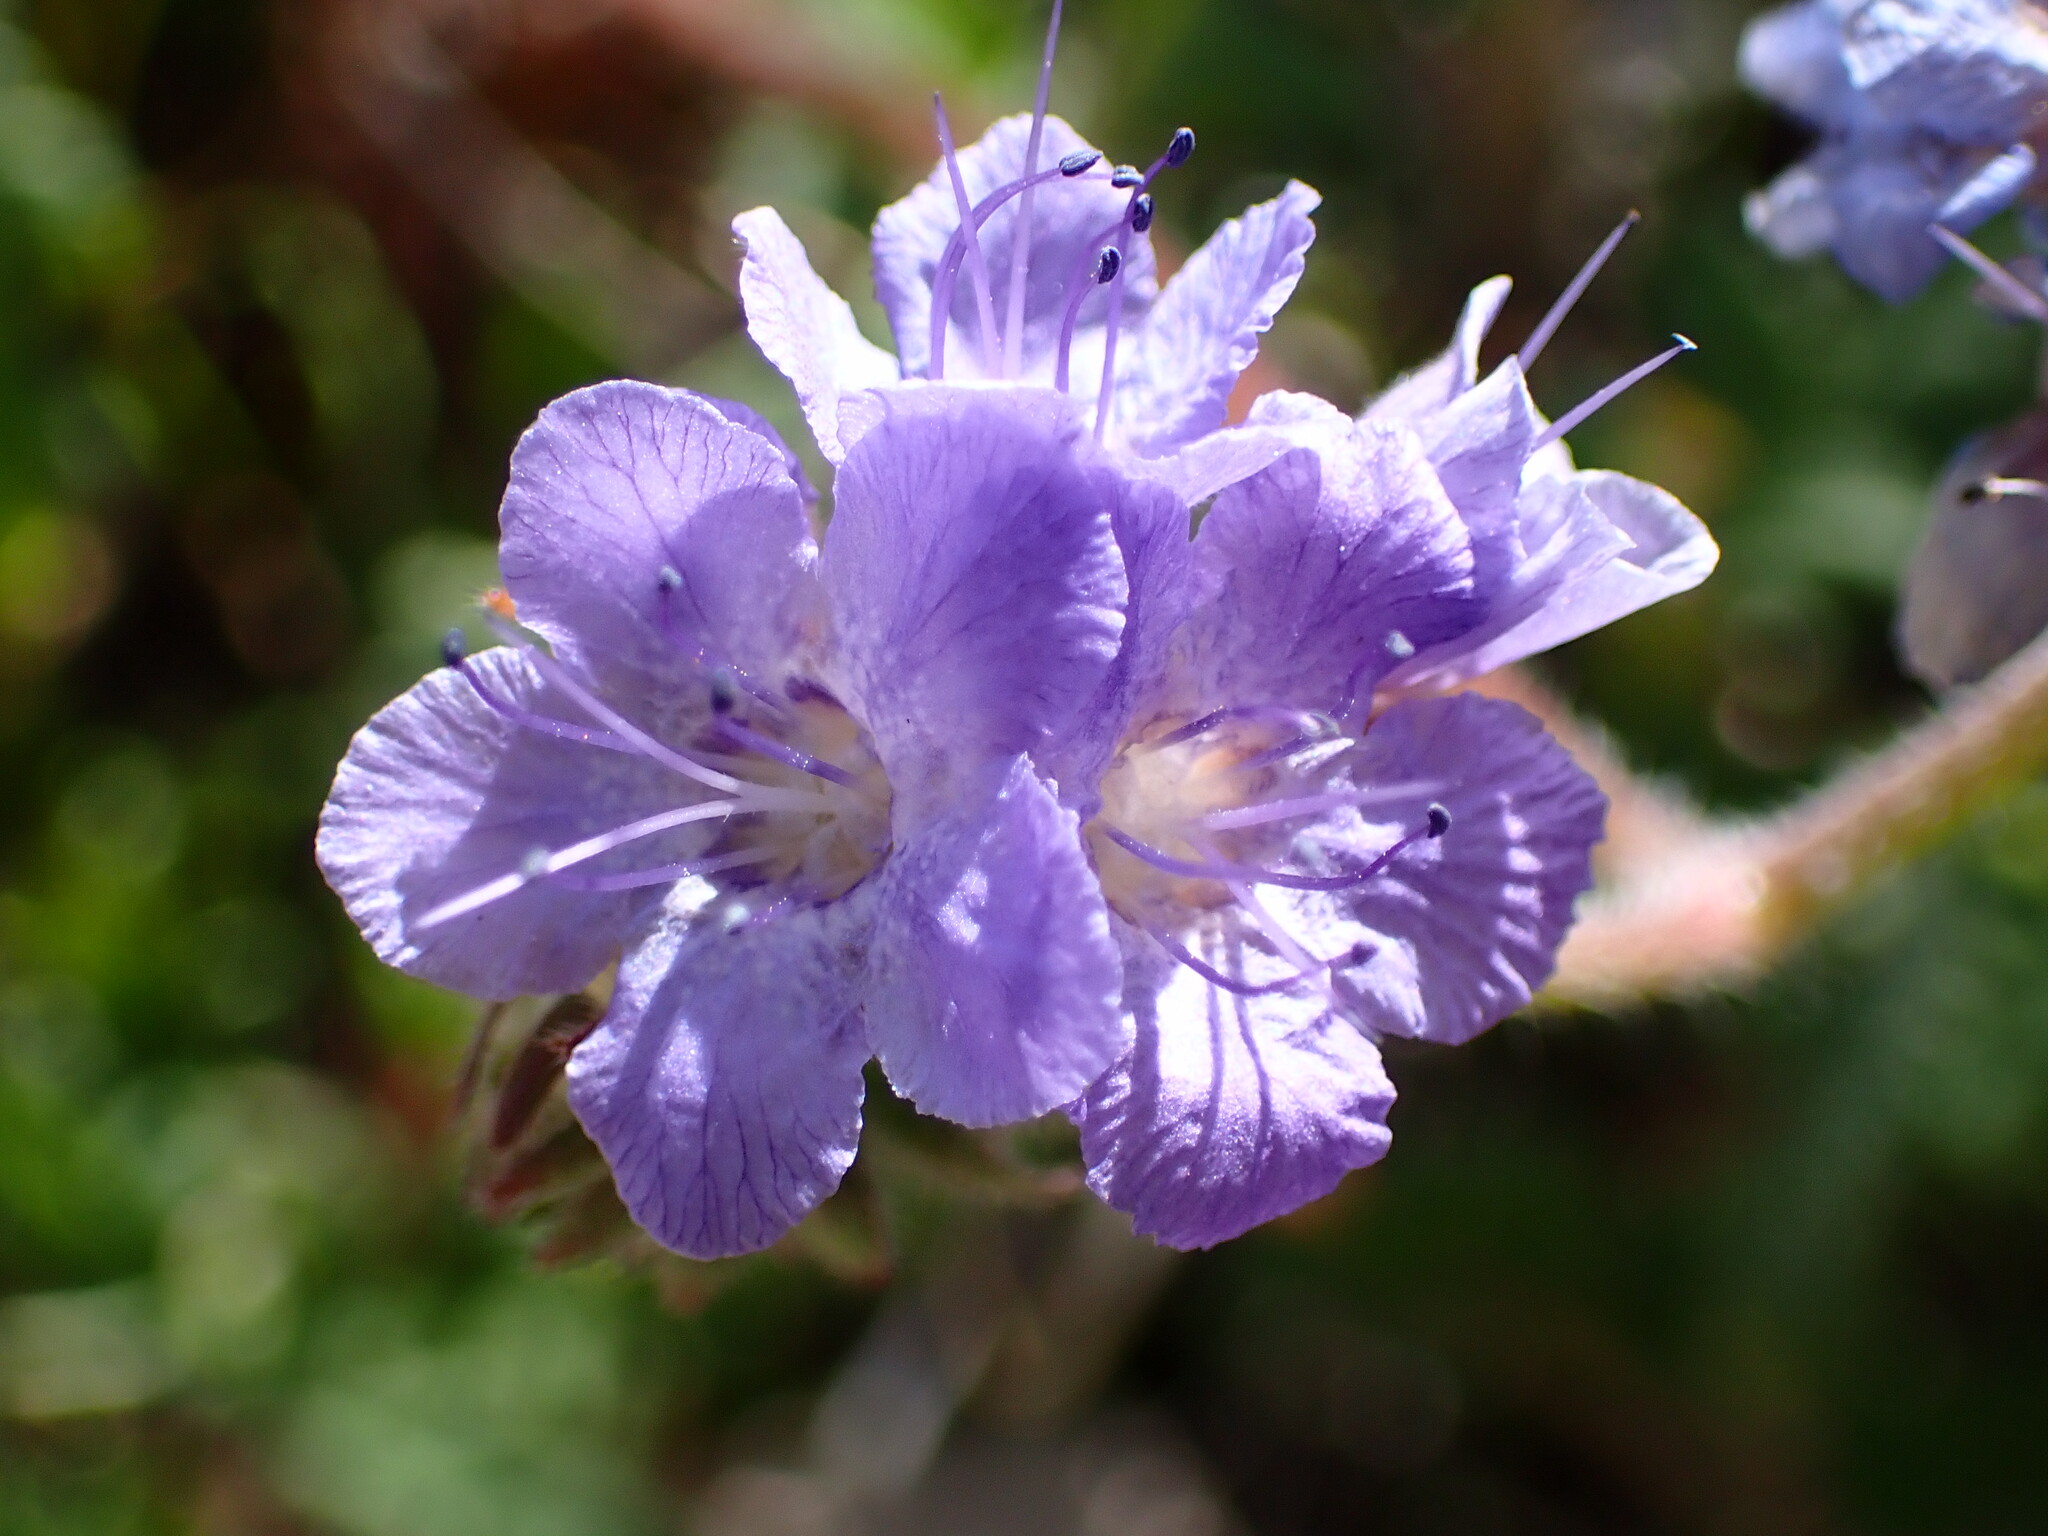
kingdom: Plantae
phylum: Tracheophyta
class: Magnoliopsida
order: Boraginales
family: Hydrophyllaceae
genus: Phacelia
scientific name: Phacelia distans
